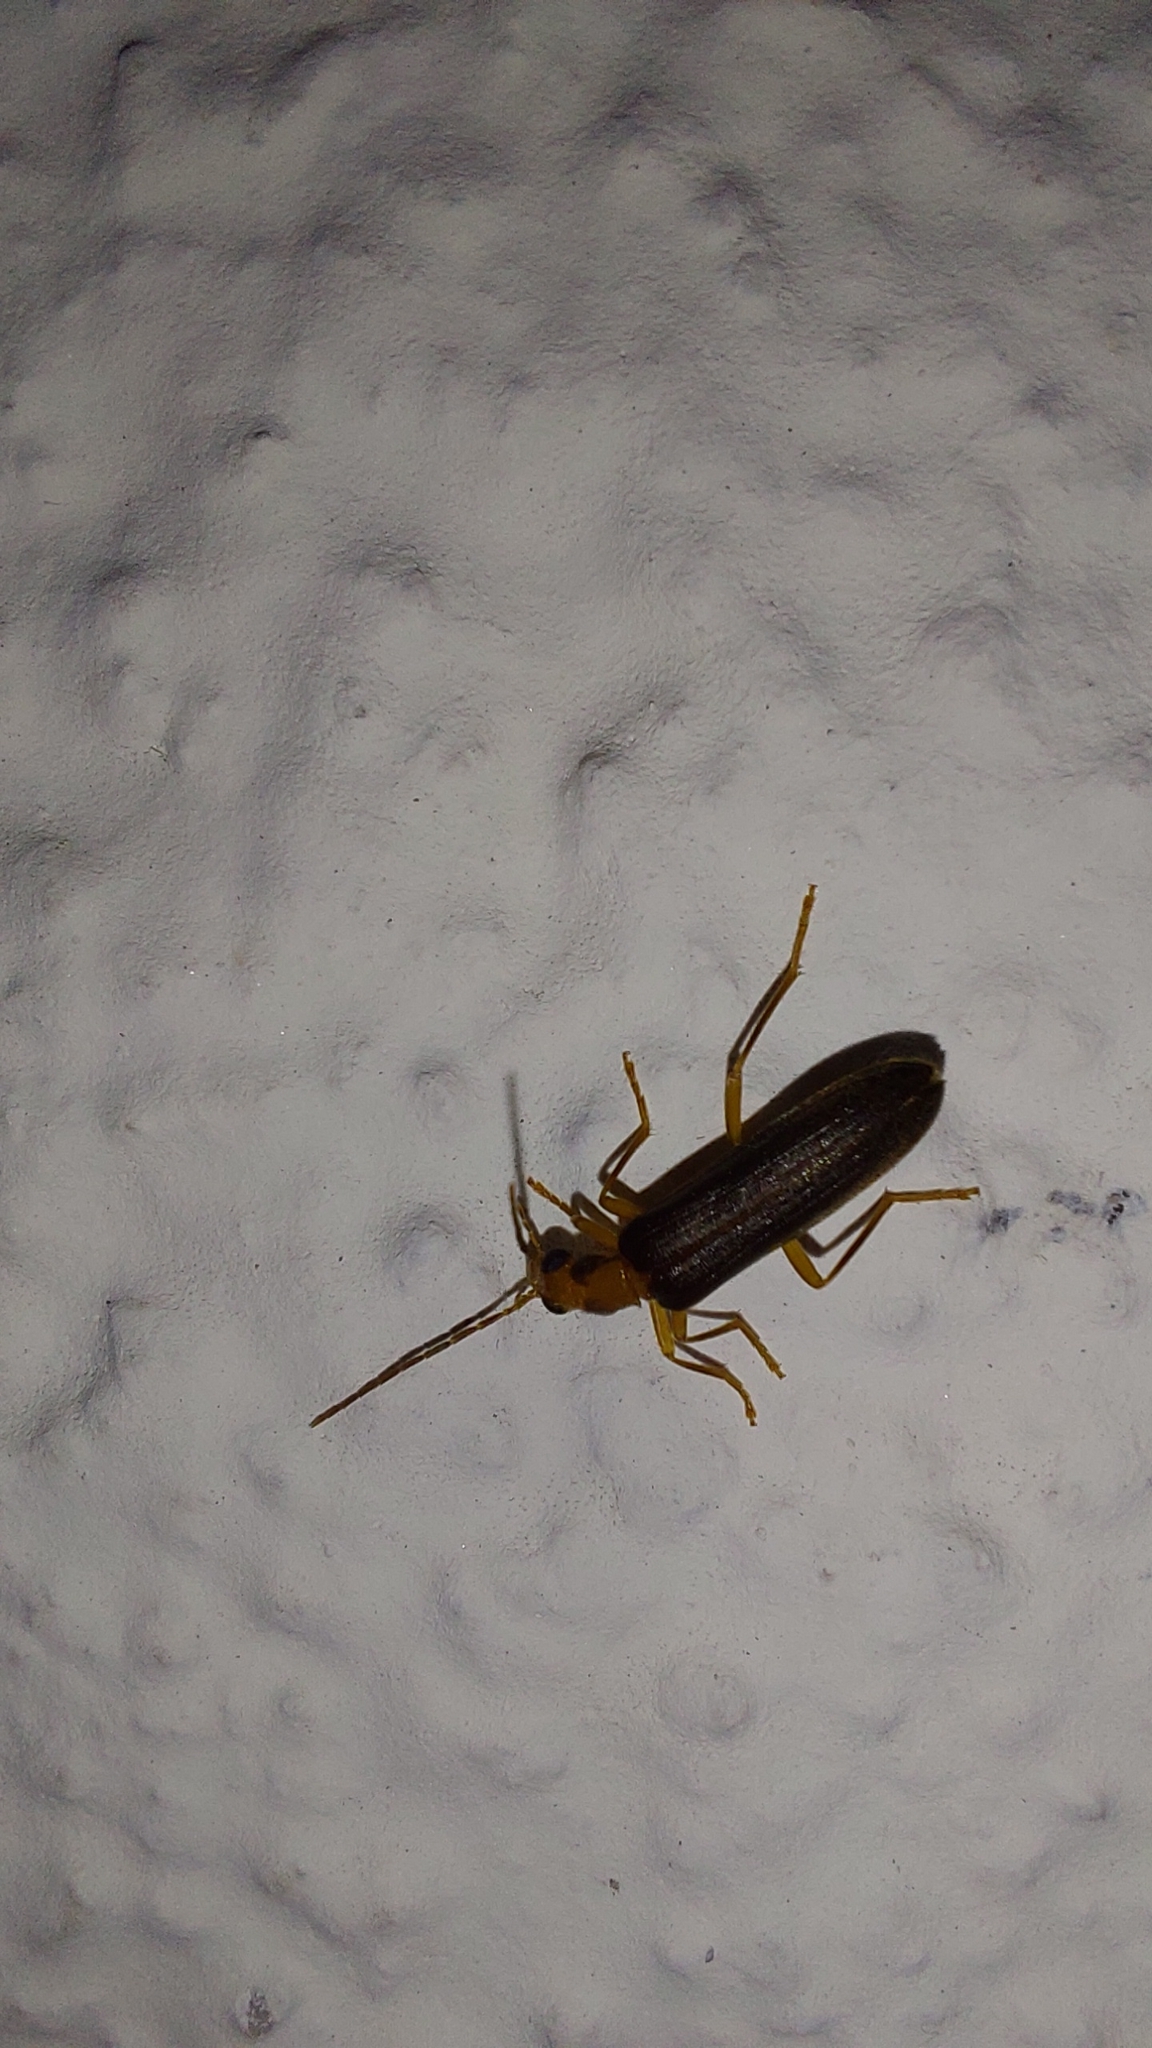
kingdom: Animalia
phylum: Arthropoda
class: Insecta
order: Coleoptera
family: Oedemeridae
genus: Nacerdes
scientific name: Nacerdes carniolica
